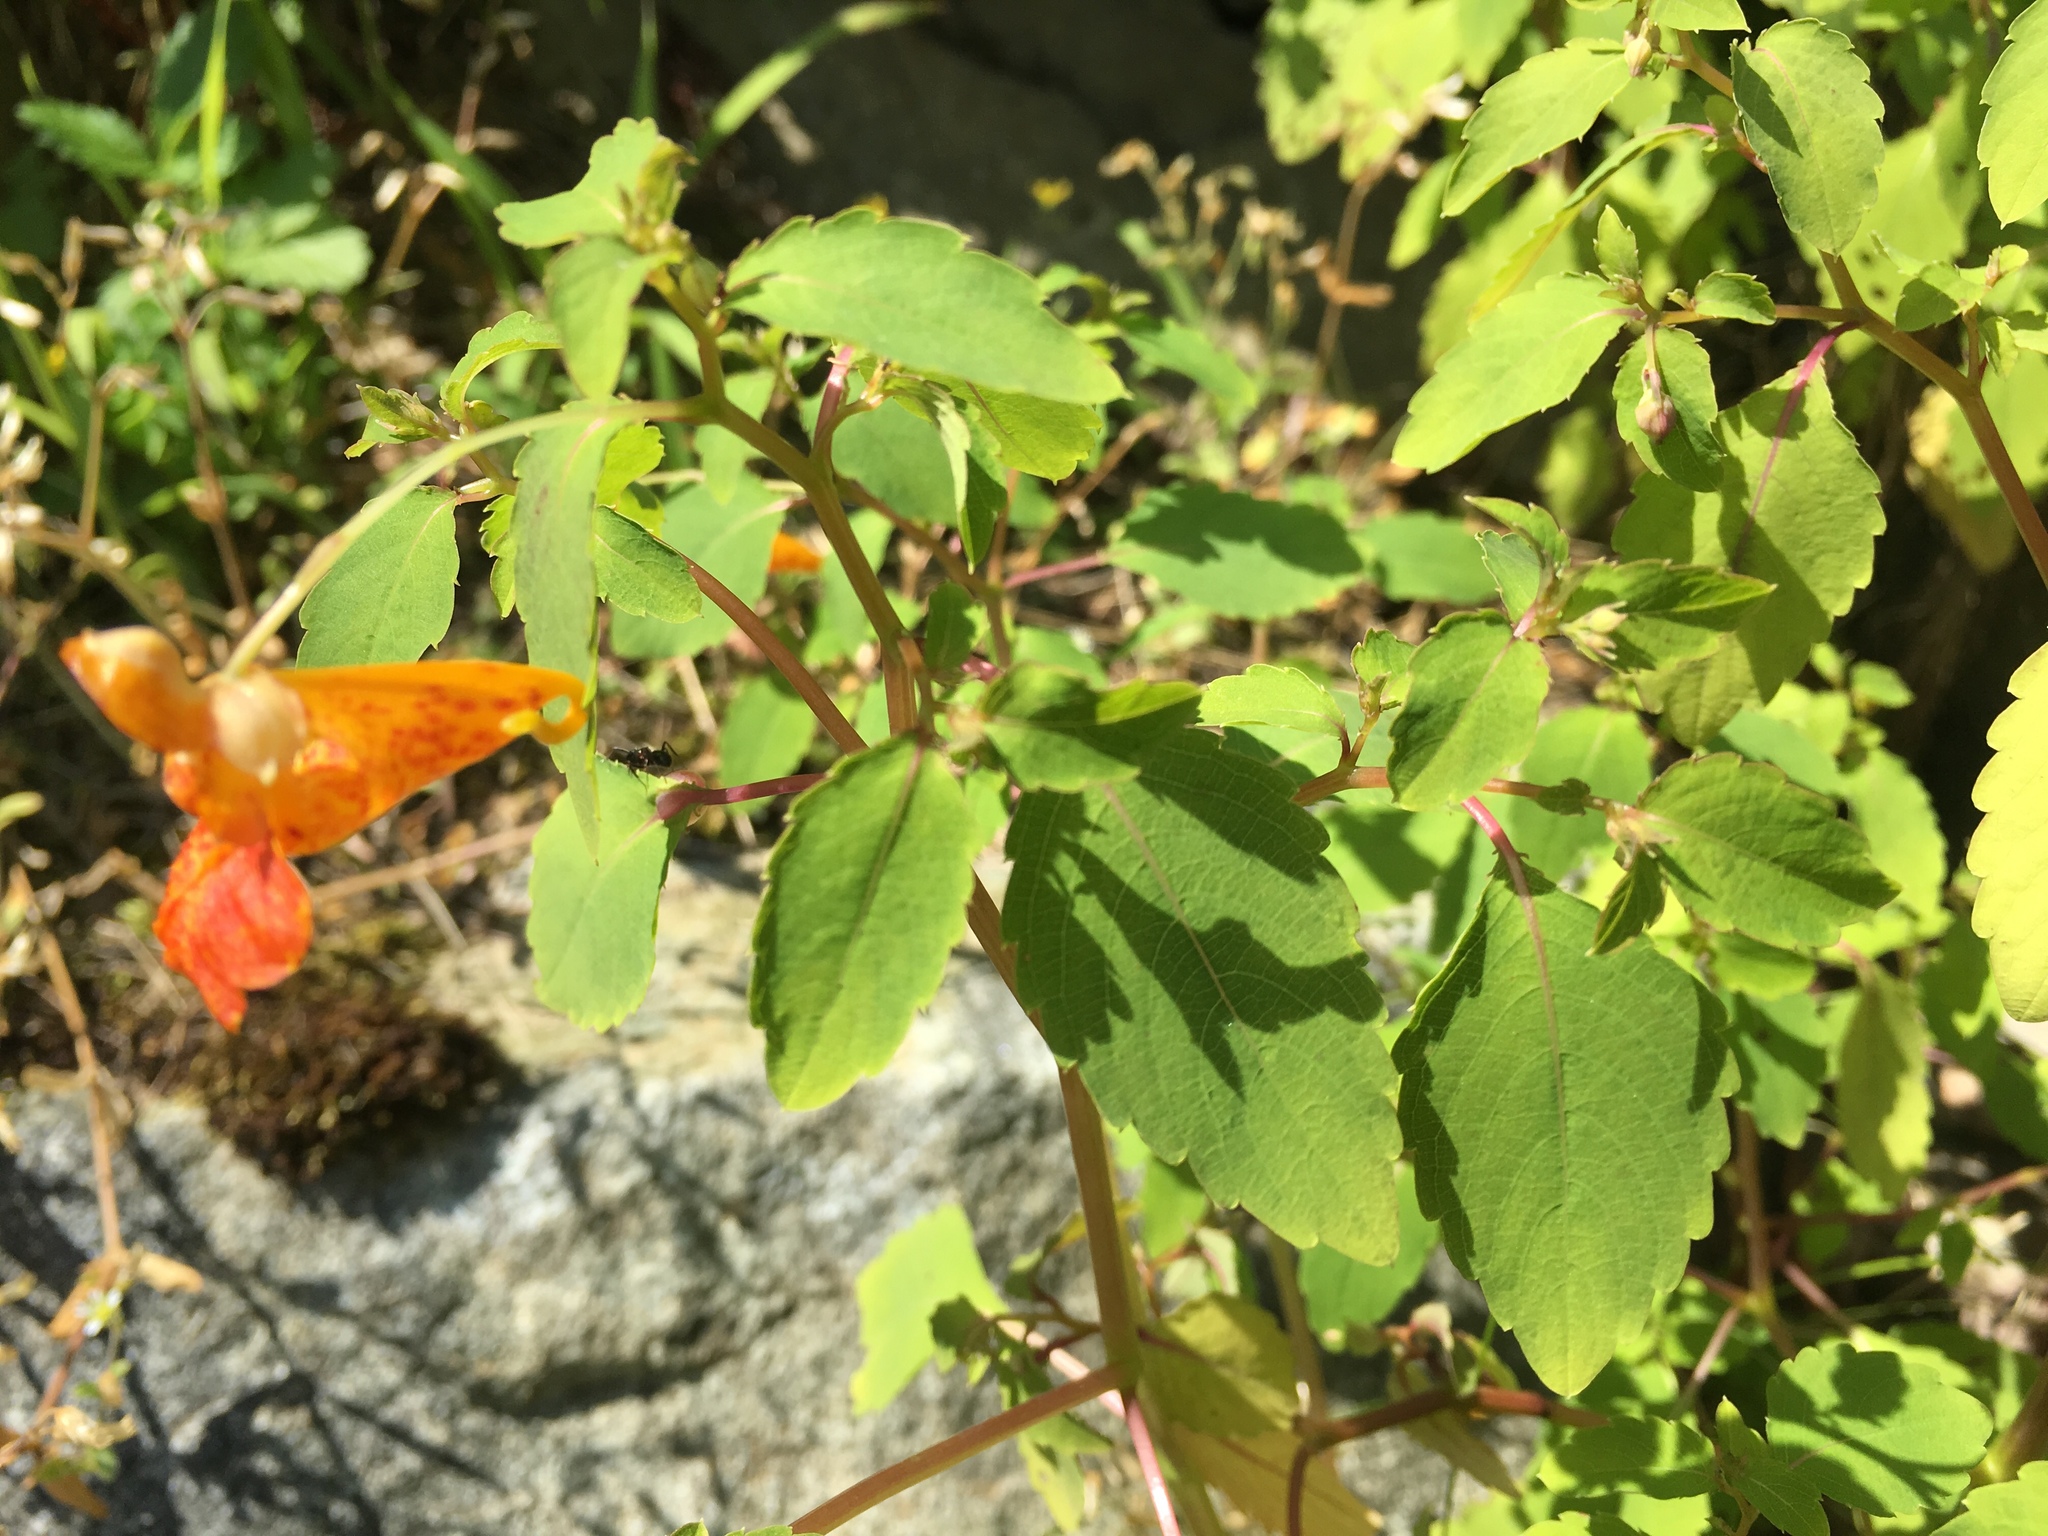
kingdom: Plantae
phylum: Tracheophyta
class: Magnoliopsida
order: Ericales
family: Balsaminaceae
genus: Impatiens
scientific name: Impatiens capensis
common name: Orange balsam
